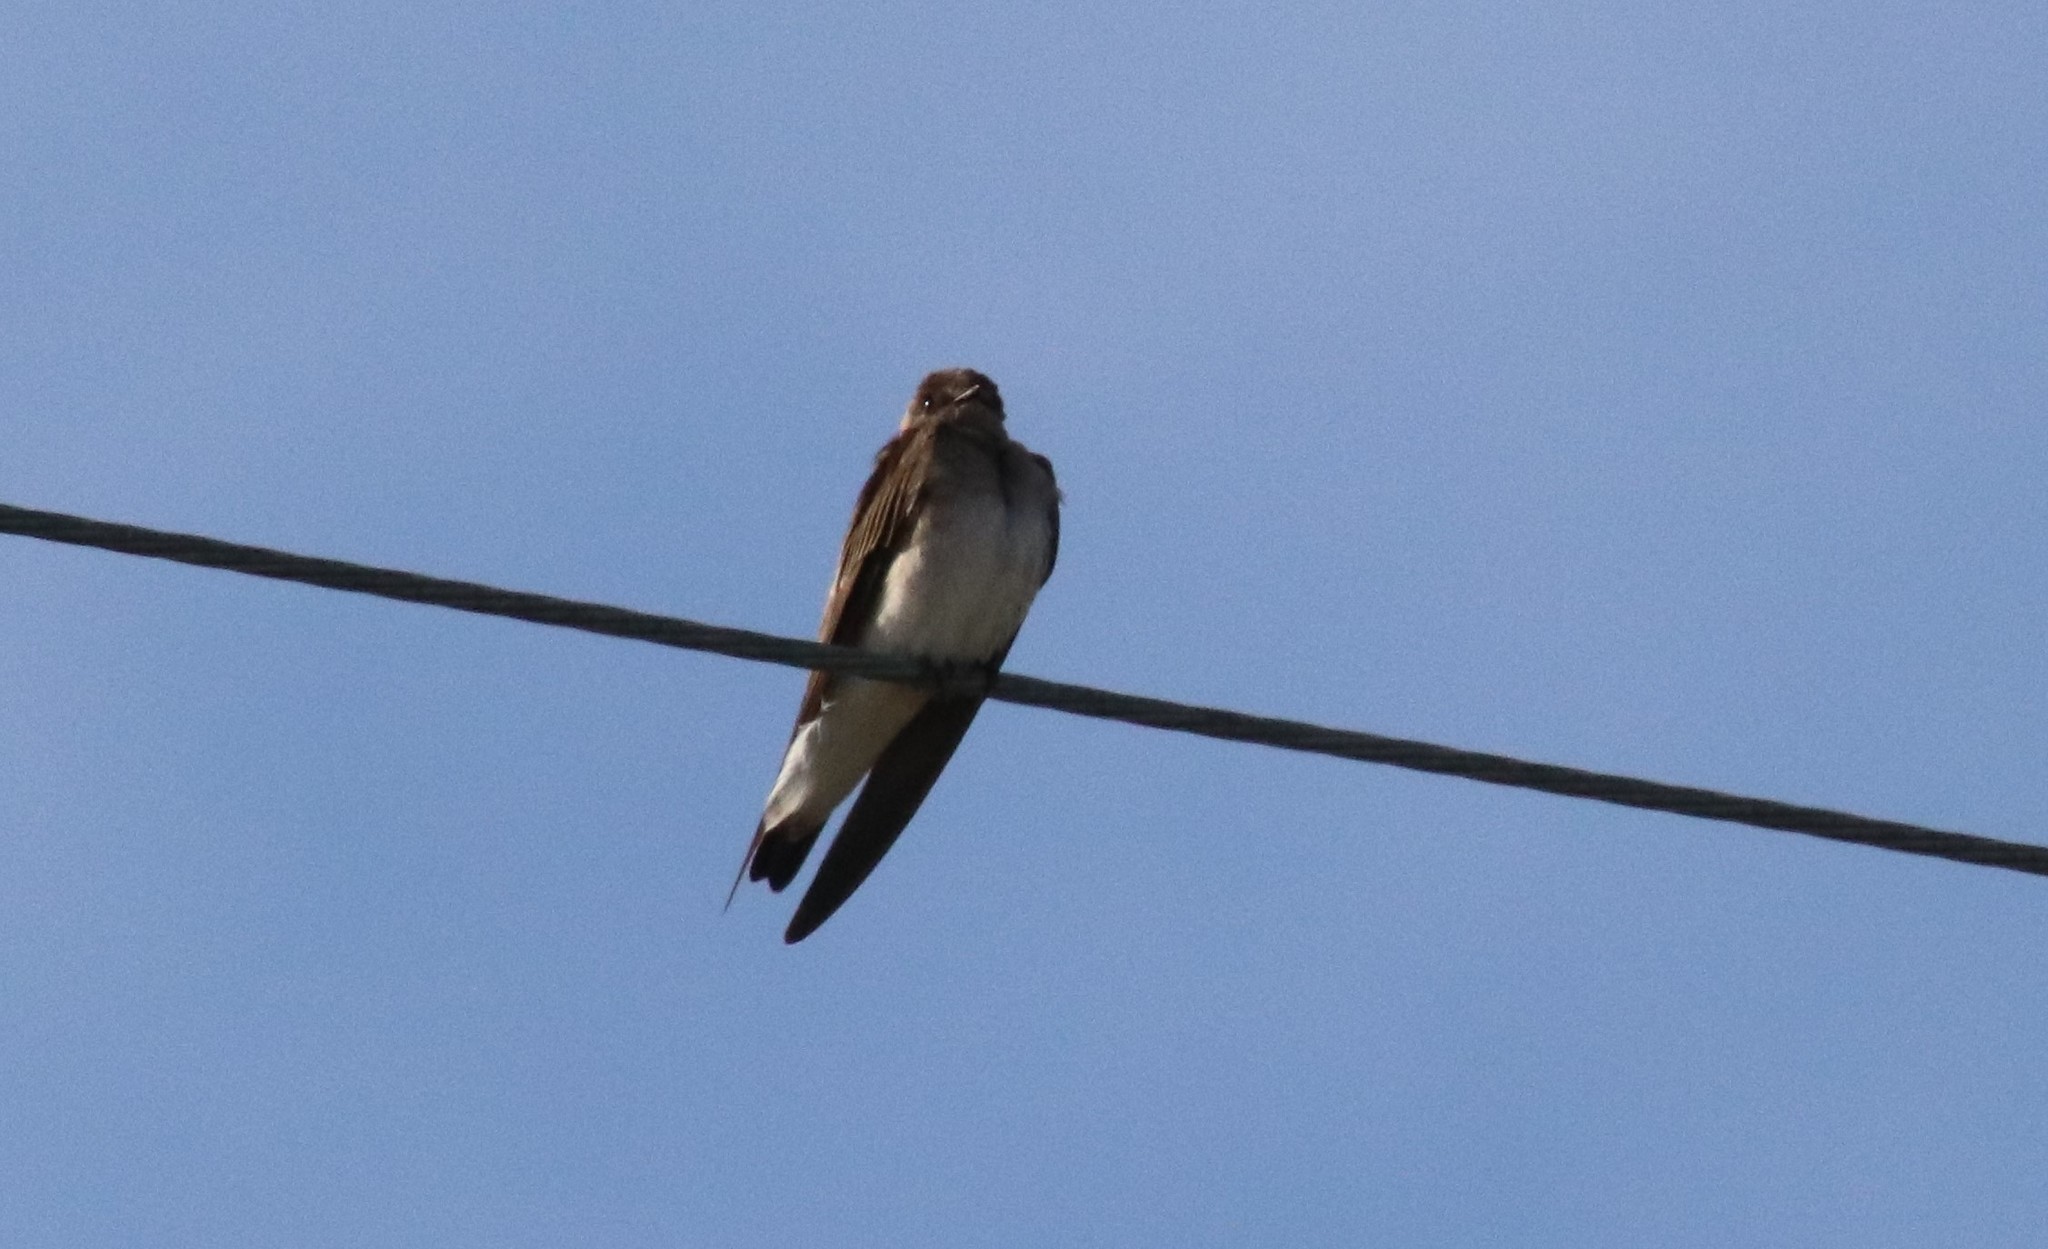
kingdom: Animalia
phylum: Chordata
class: Aves
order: Passeriformes
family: Hirundinidae
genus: Stelgidopteryx
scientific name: Stelgidopteryx serripennis
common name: Northern rough-winged swallow
